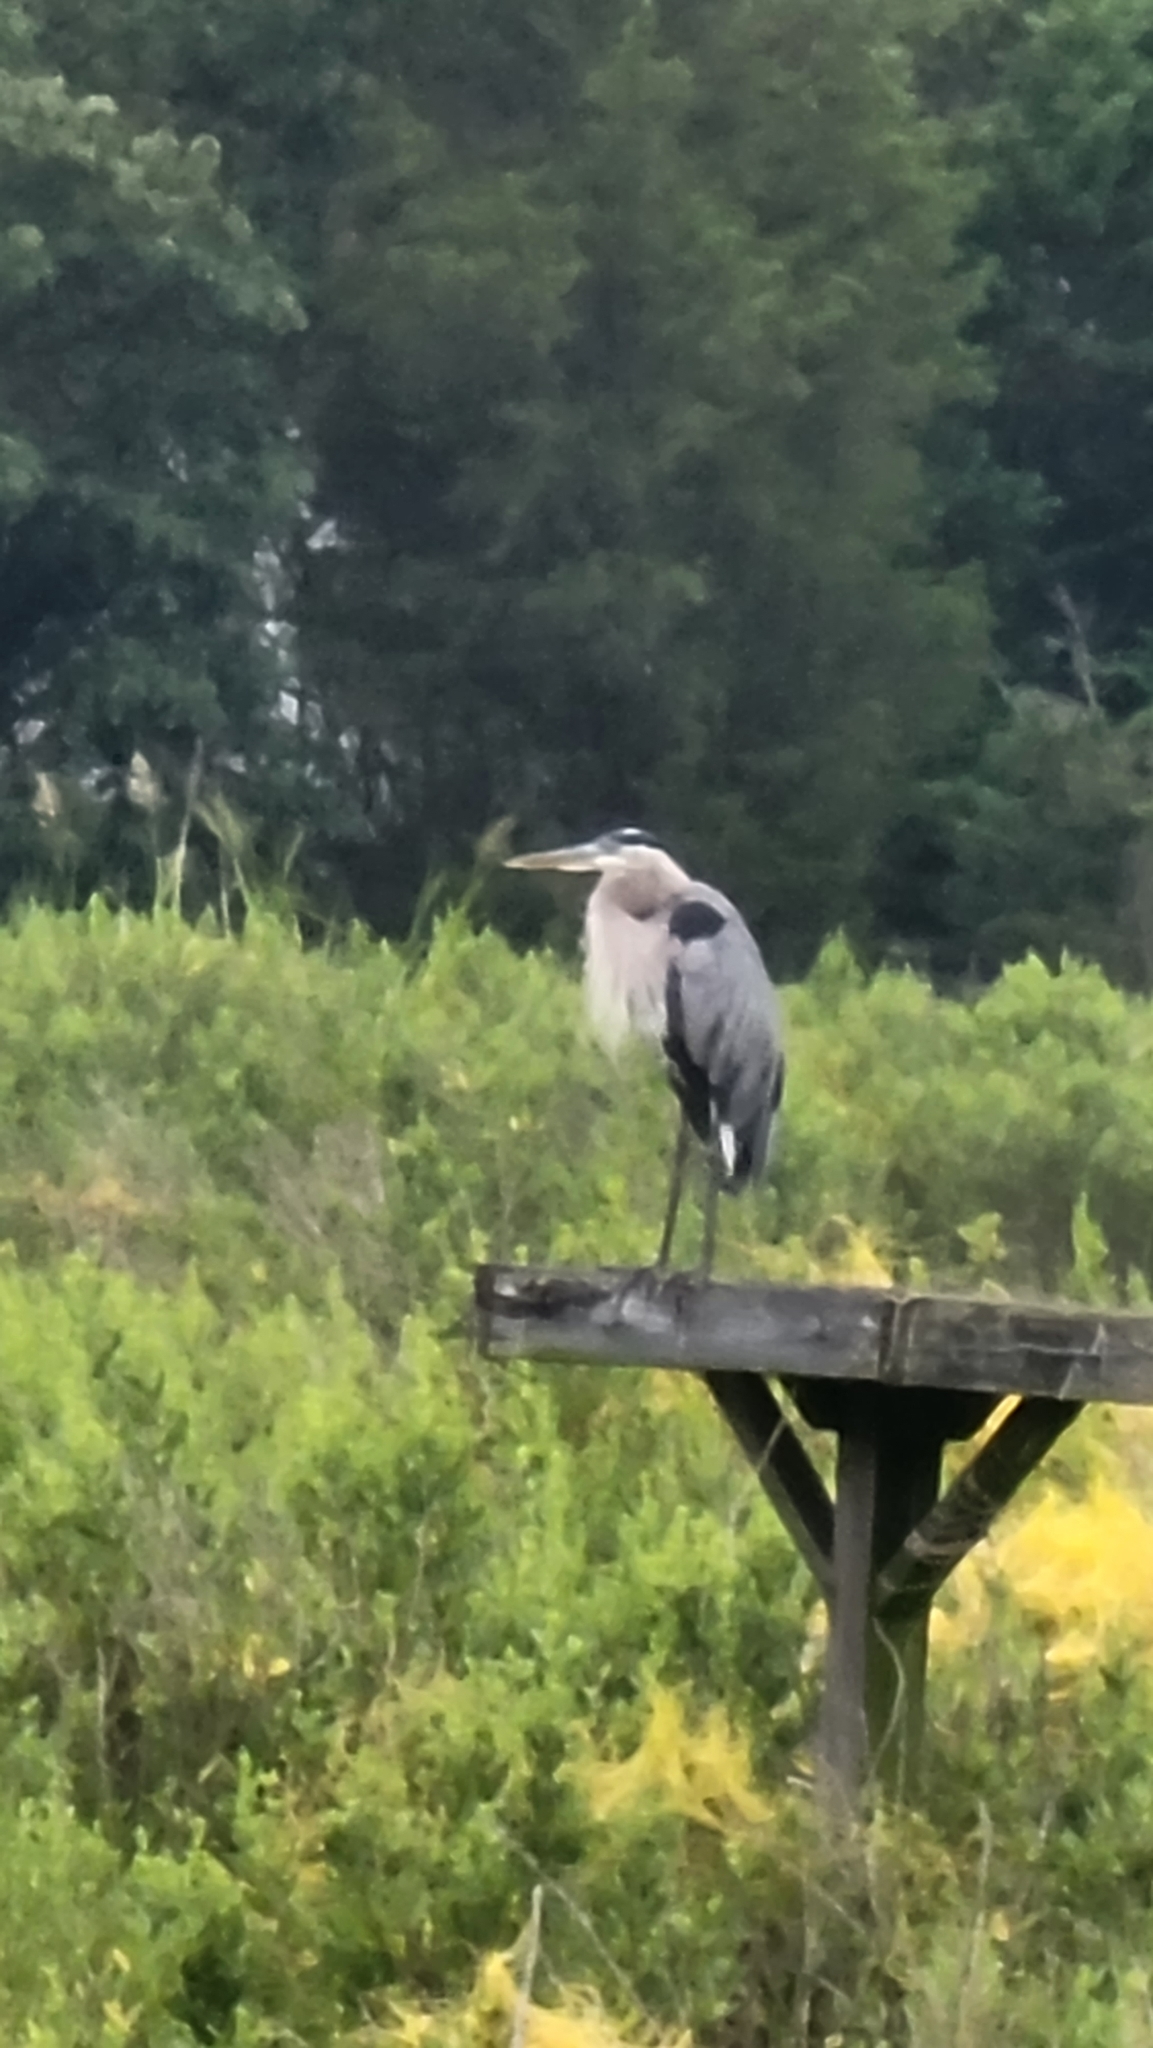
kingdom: Animalia
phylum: Chordata
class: Aves
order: Pelecaniformes
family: Ardeidae
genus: Ardea
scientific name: Ardea herodias
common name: Great blue heron
